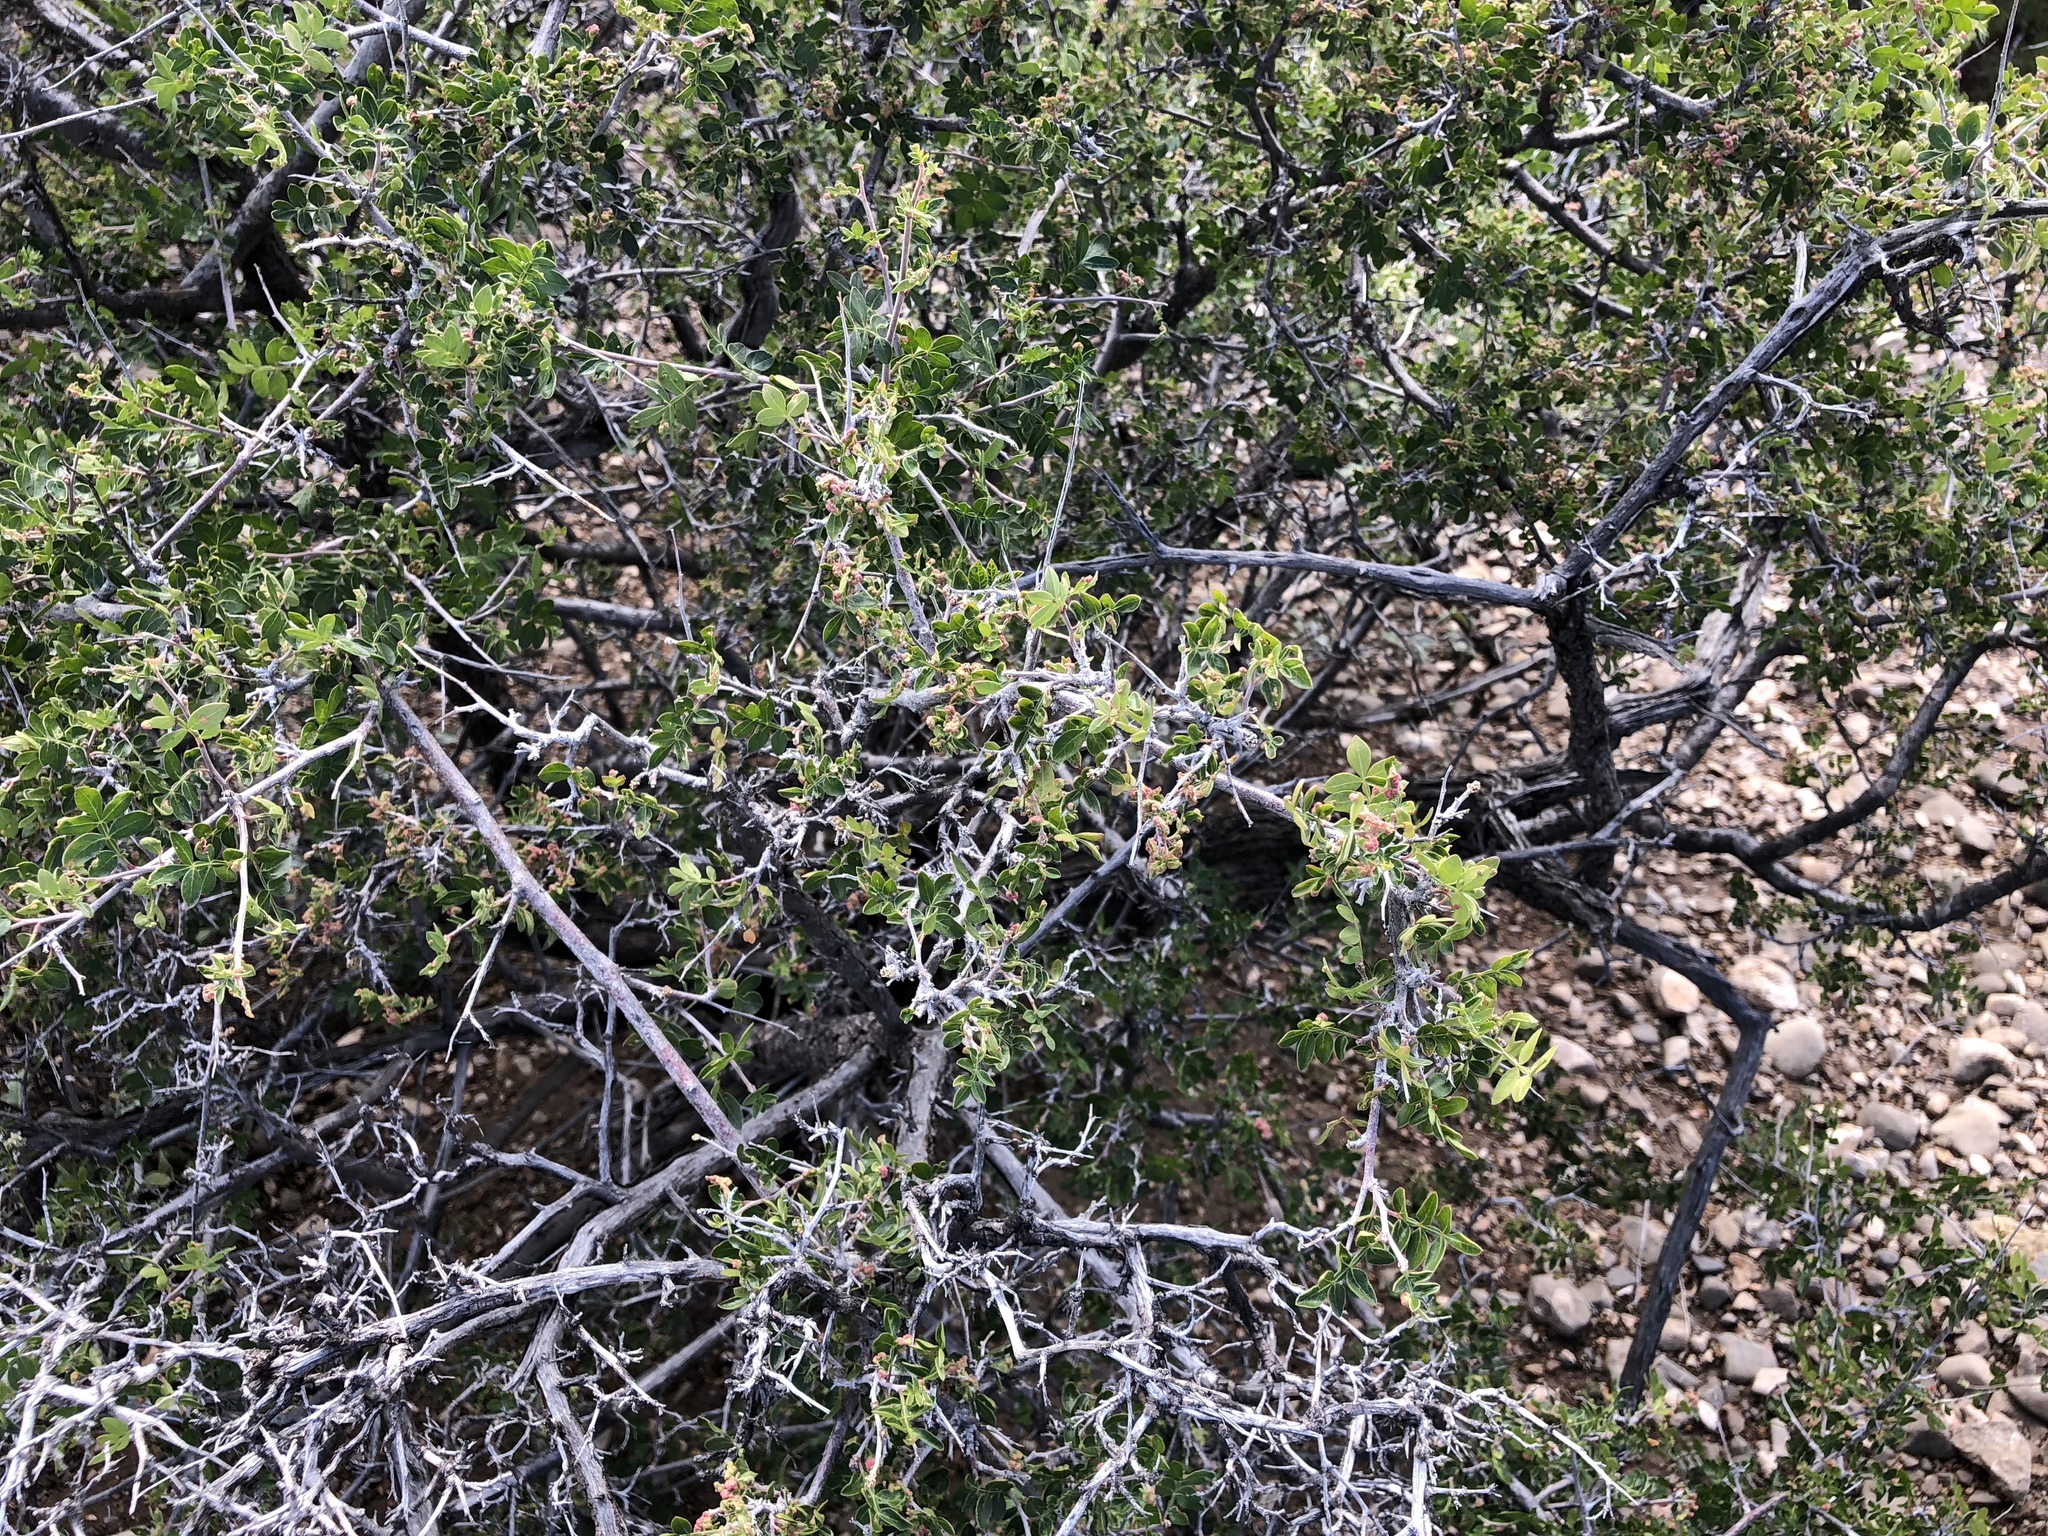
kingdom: Plantae
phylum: Tracheophyta
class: Magnoliopsida
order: Sapindales
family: Anacardiaceae
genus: Rhus
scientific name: Rhus microphylla
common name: Desert sumac
